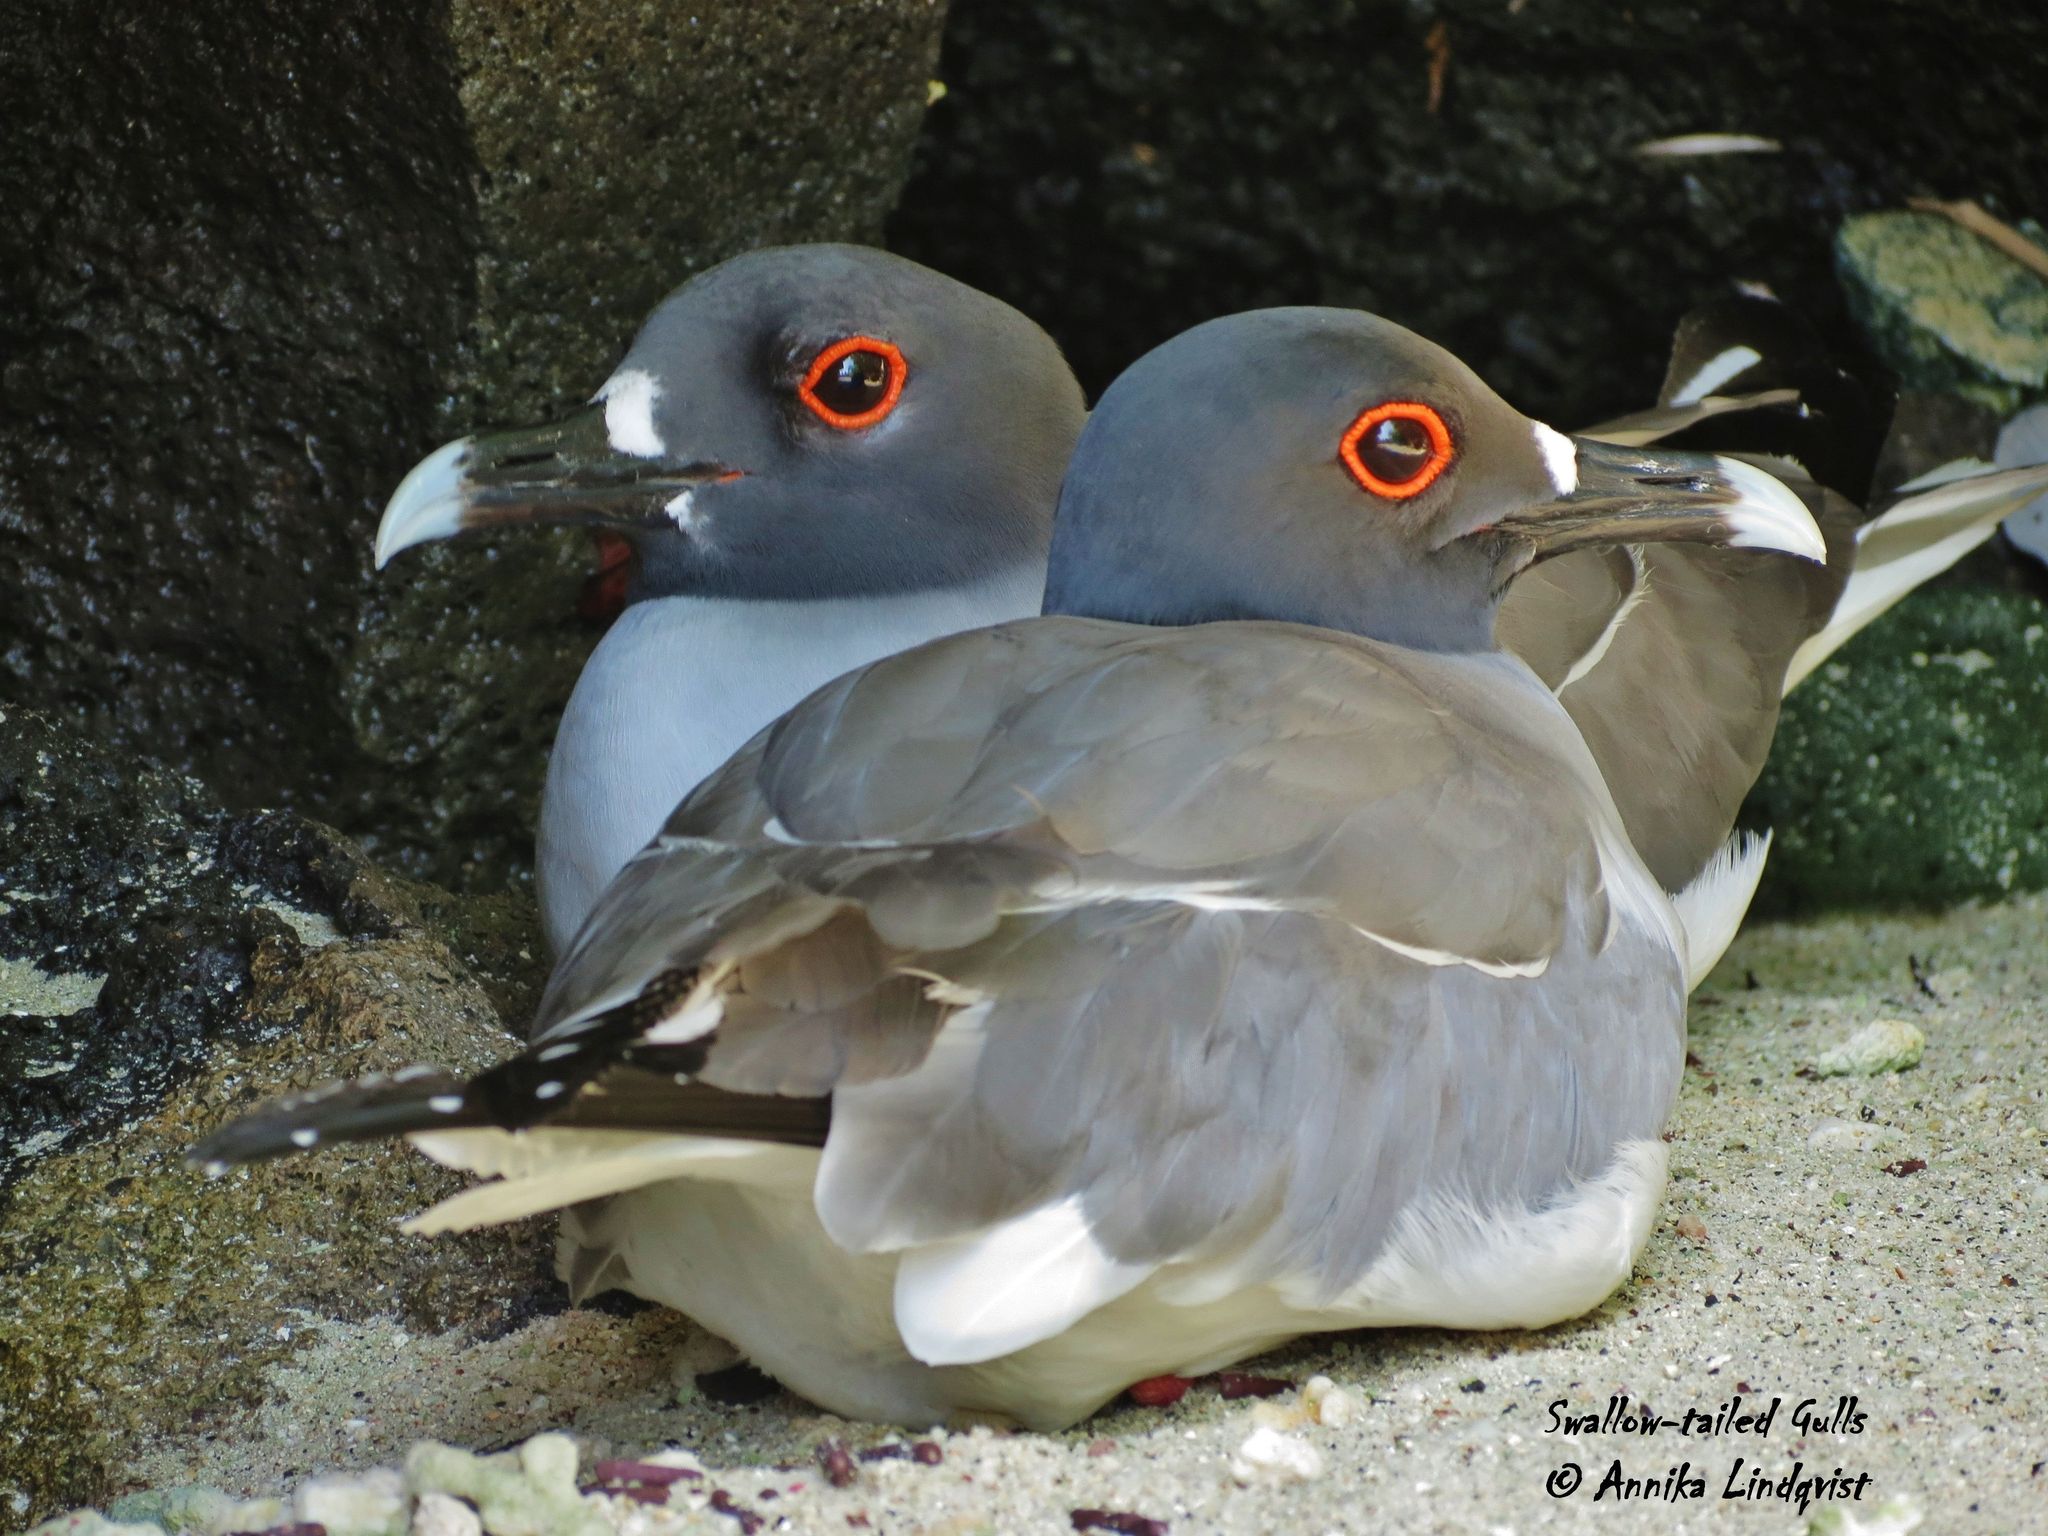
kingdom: Animalia
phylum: Chordata
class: Aves
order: Charadriiformes
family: Laridae
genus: Creagrus
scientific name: Creagrus furcatus
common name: Swallow-tailed gull
